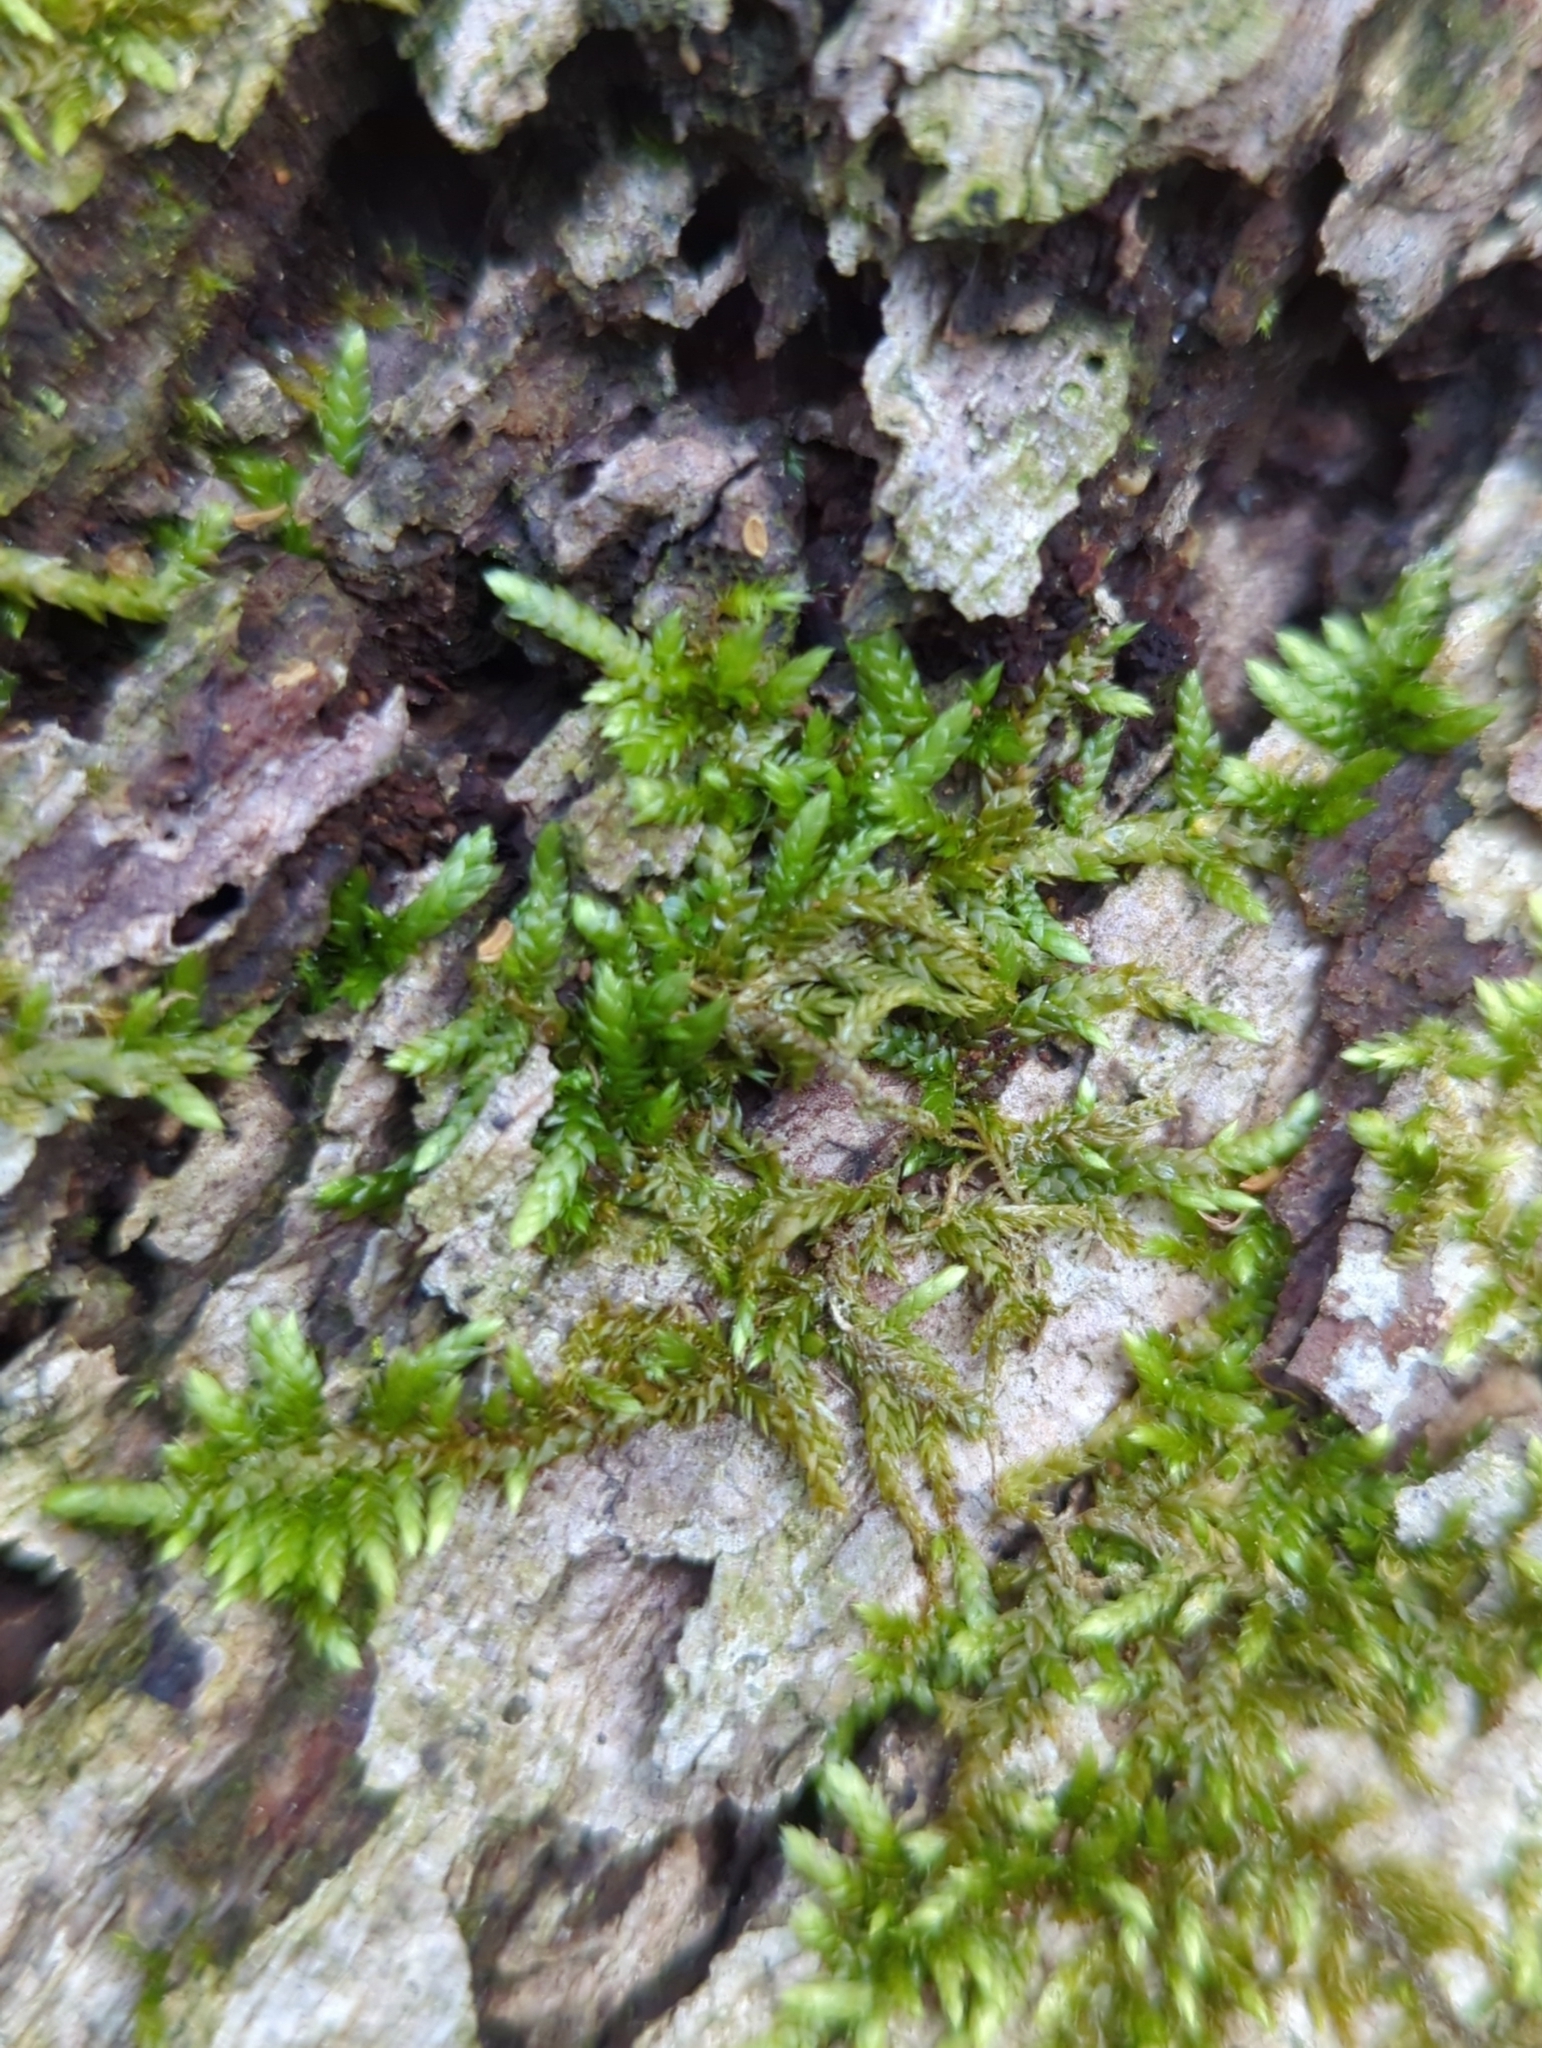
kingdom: Plantae
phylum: Bryophyta
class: Bryopsida
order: Hypnales
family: Entodontaceae
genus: Entodon
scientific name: Entodon cladorrhizans
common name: Flat-stemmed entodon moss
